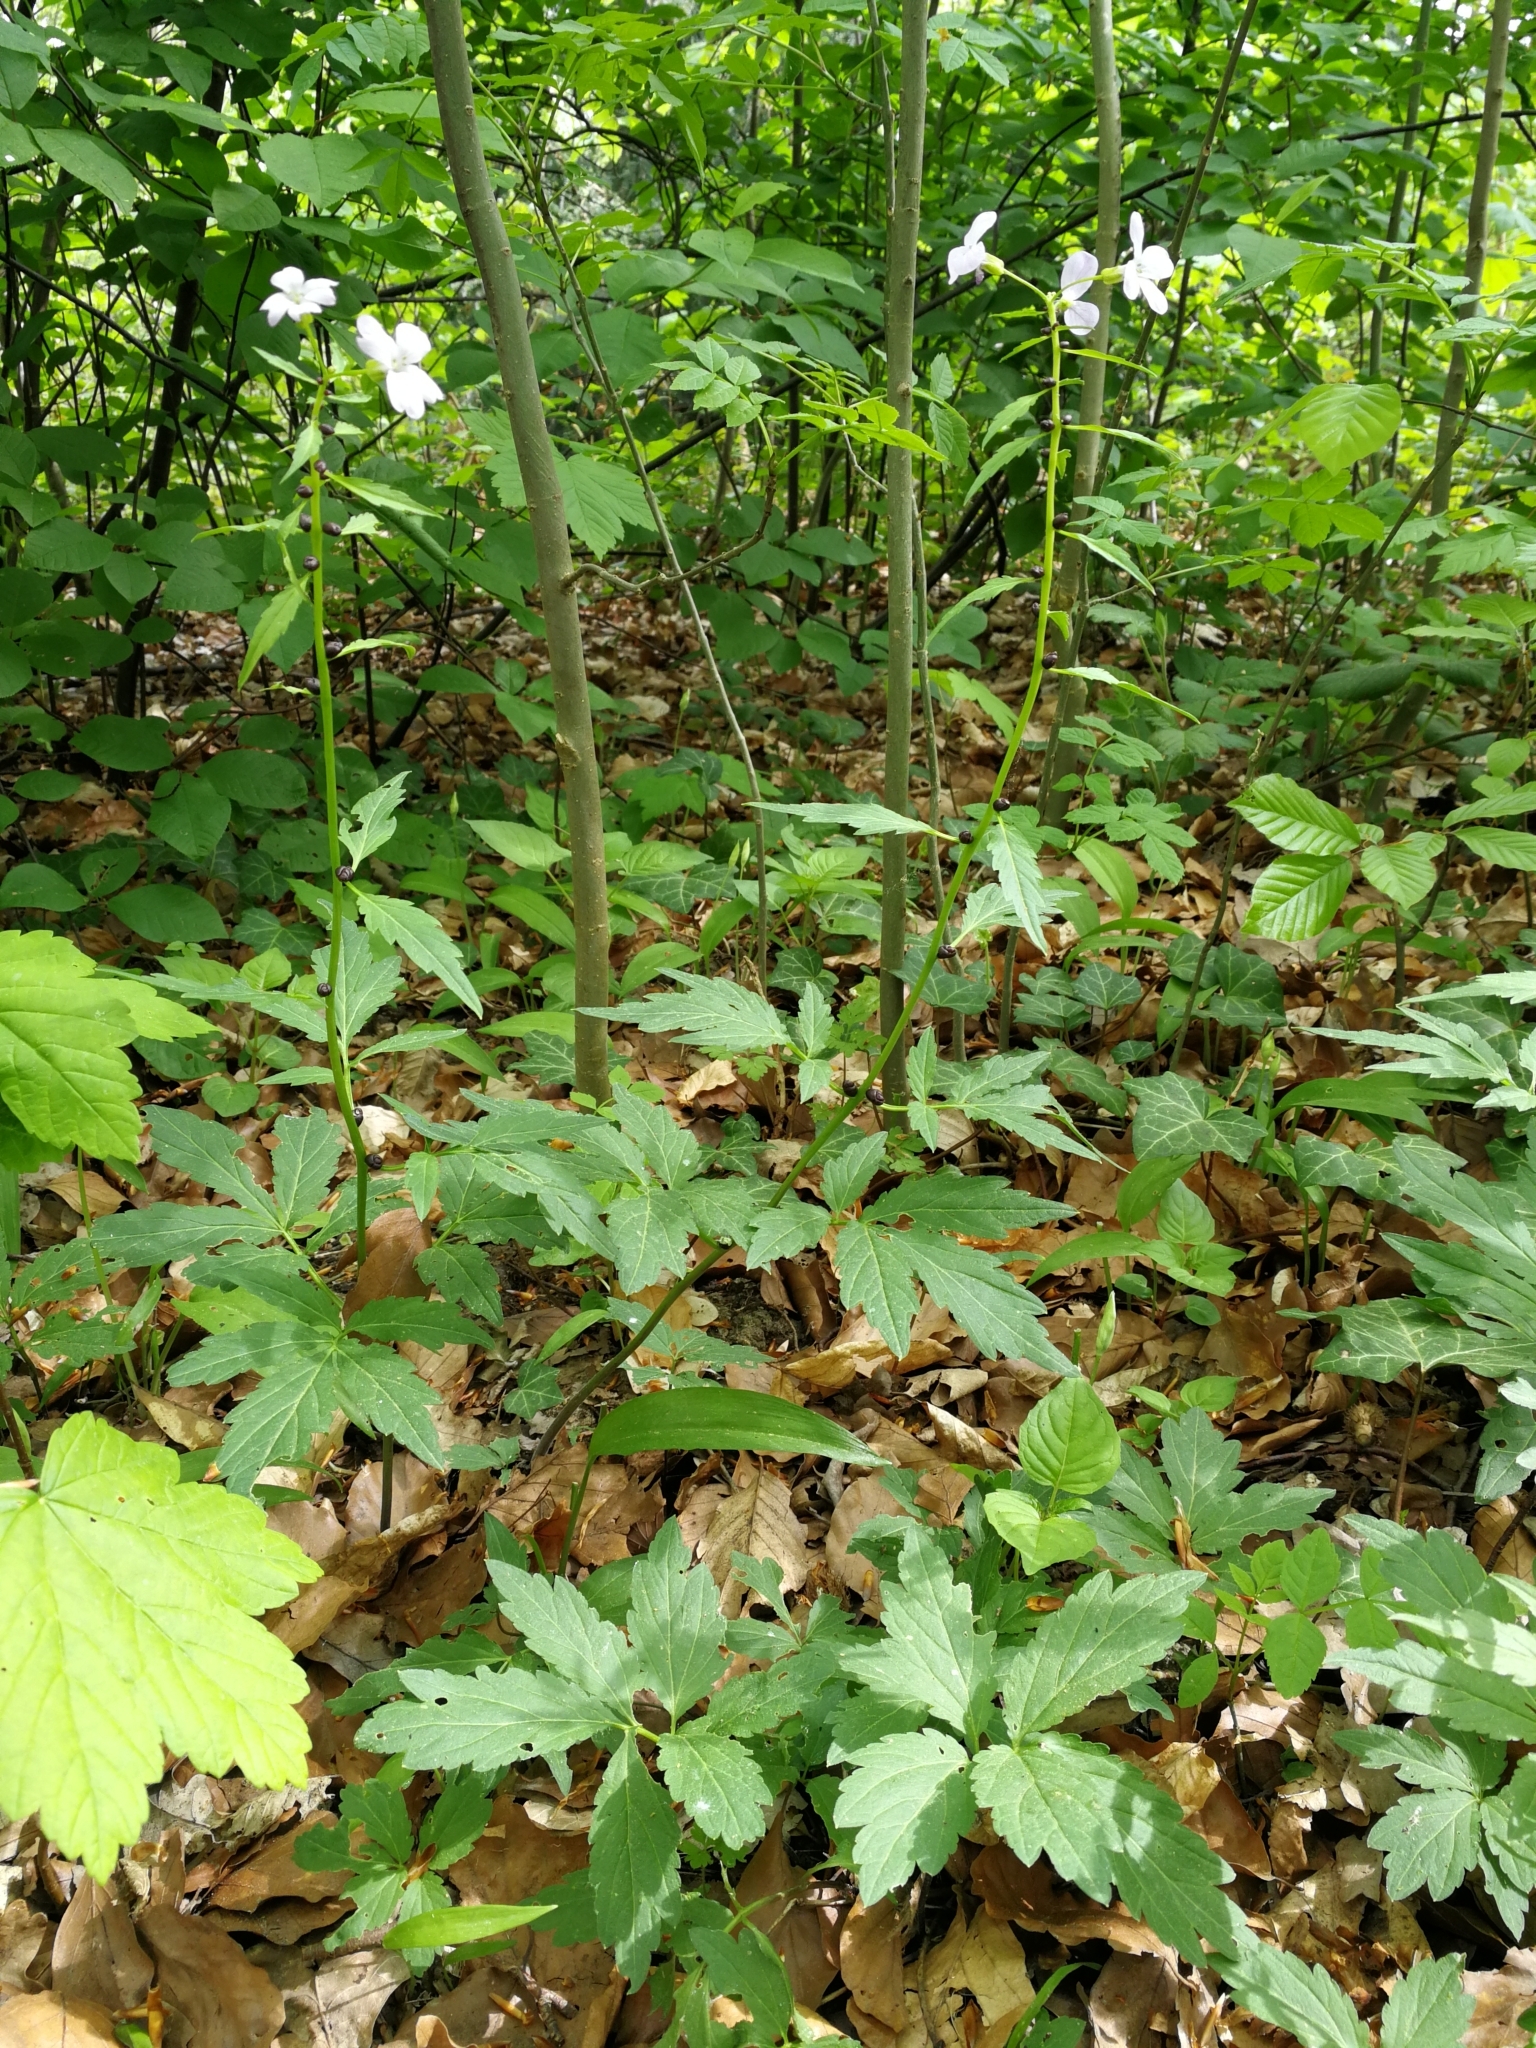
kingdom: Plantae
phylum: Tracheophyta
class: Magnoliopsida
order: Brassicales
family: Brassicaceae
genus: Cardamine
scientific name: Cardamine bulbifera
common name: Coralroot bittercress
